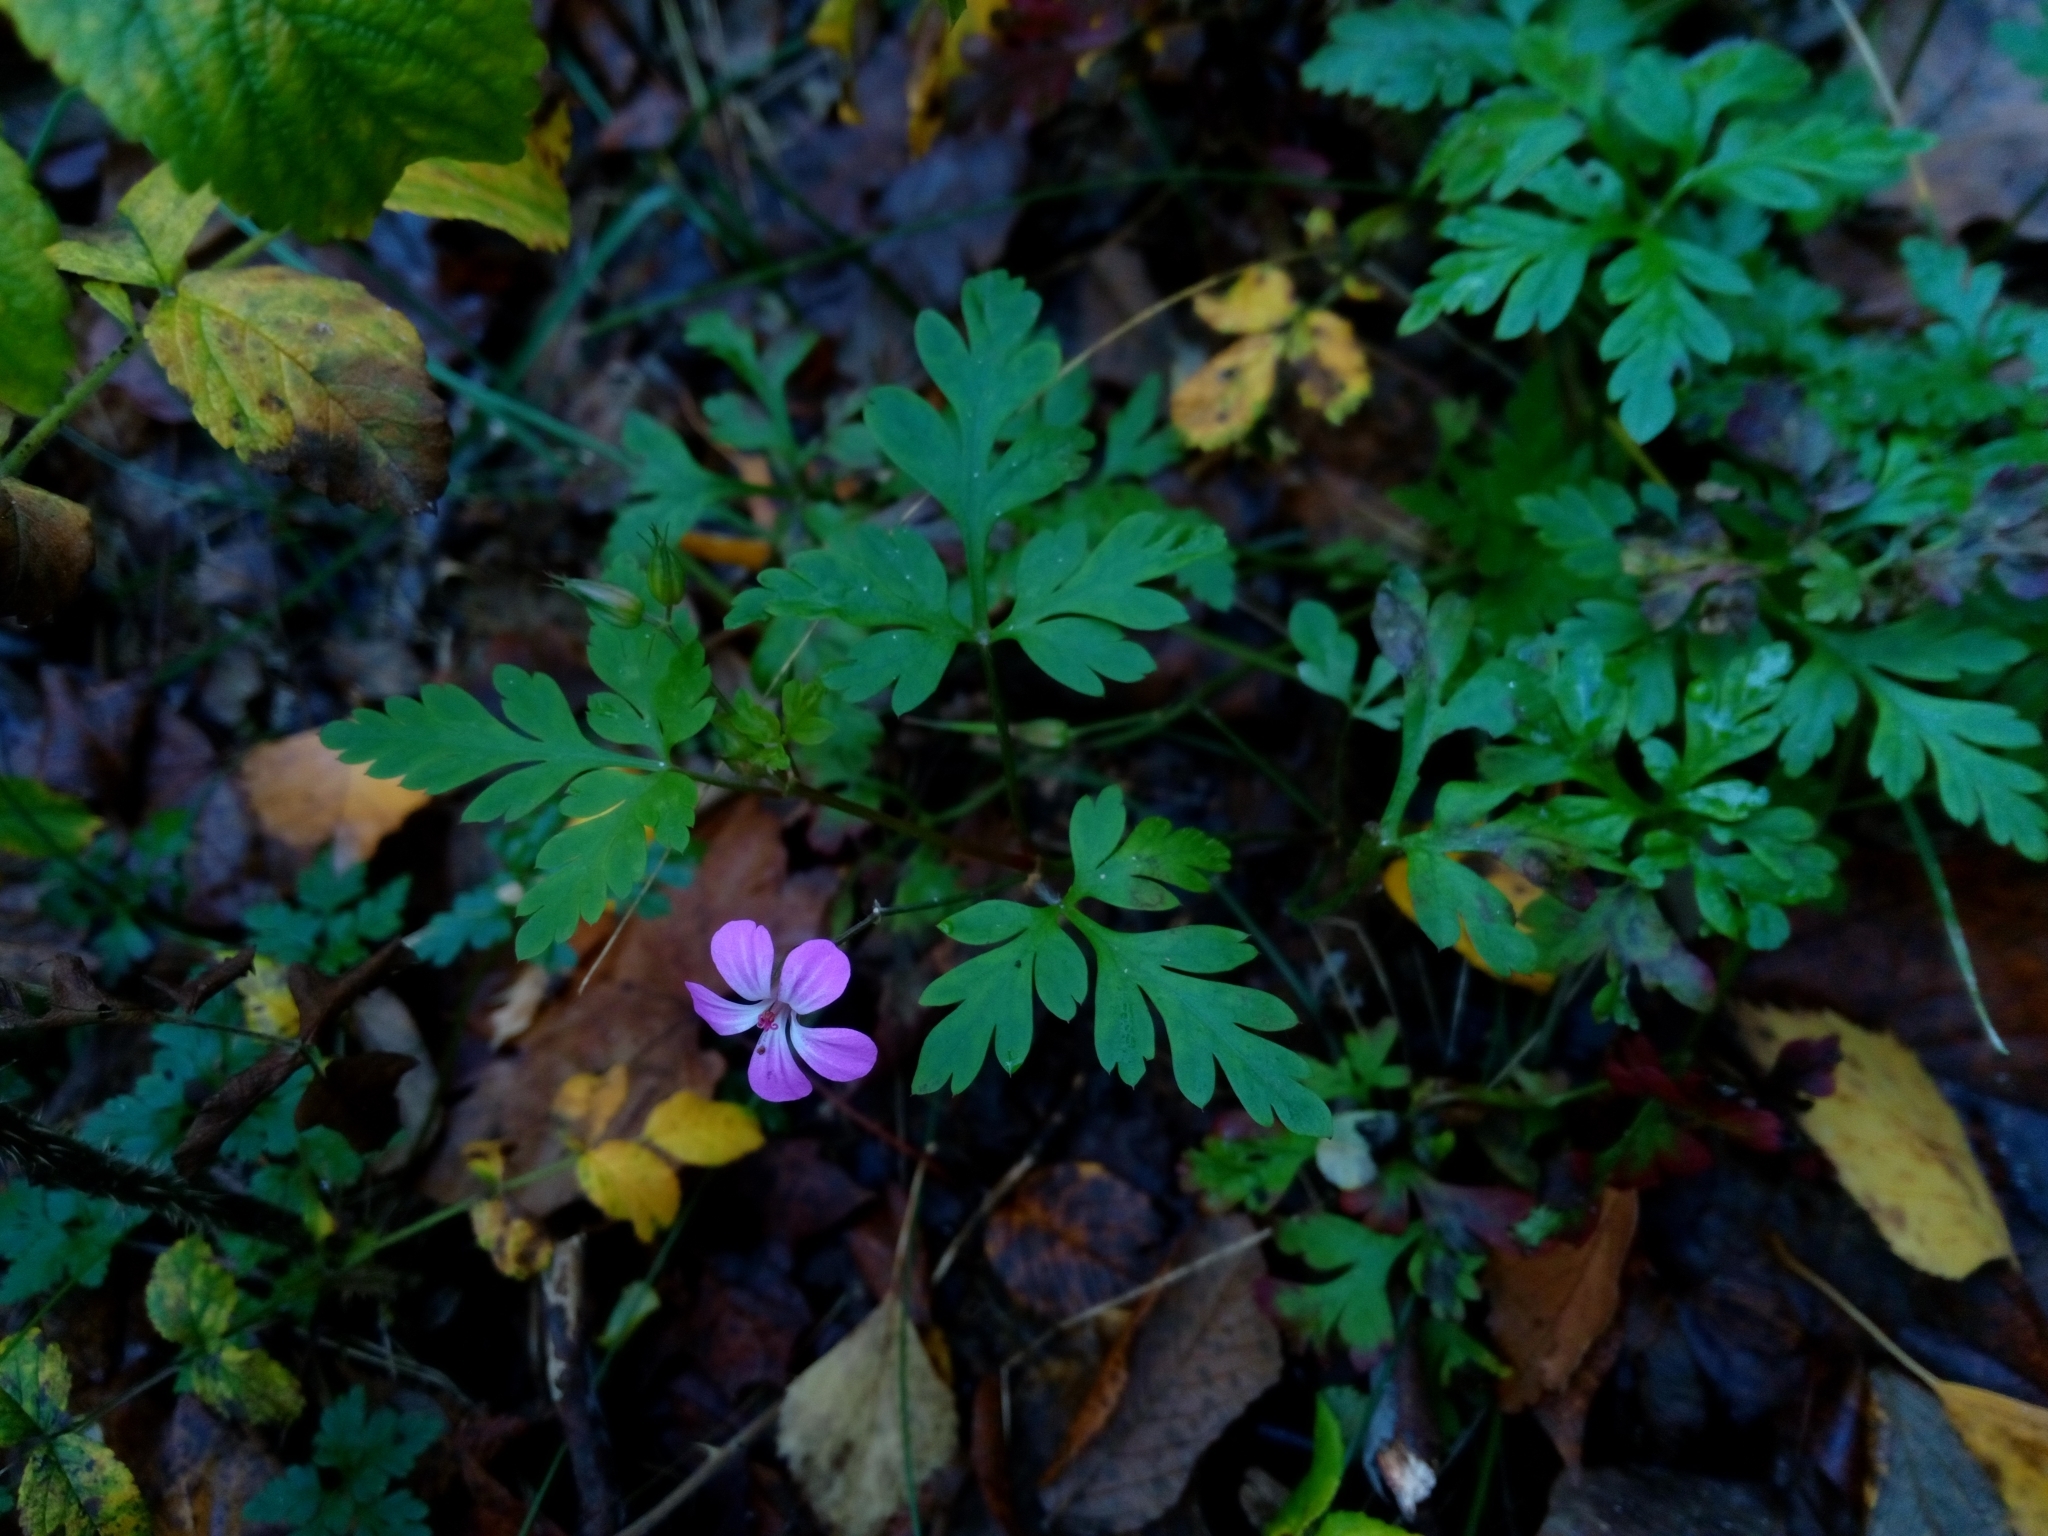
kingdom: Plantae
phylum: Tracheophyta
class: Magnoliopsida
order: Geraniales
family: Geraniaceae
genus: Geranium
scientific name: Geranium robertianum
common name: Herb-robert
